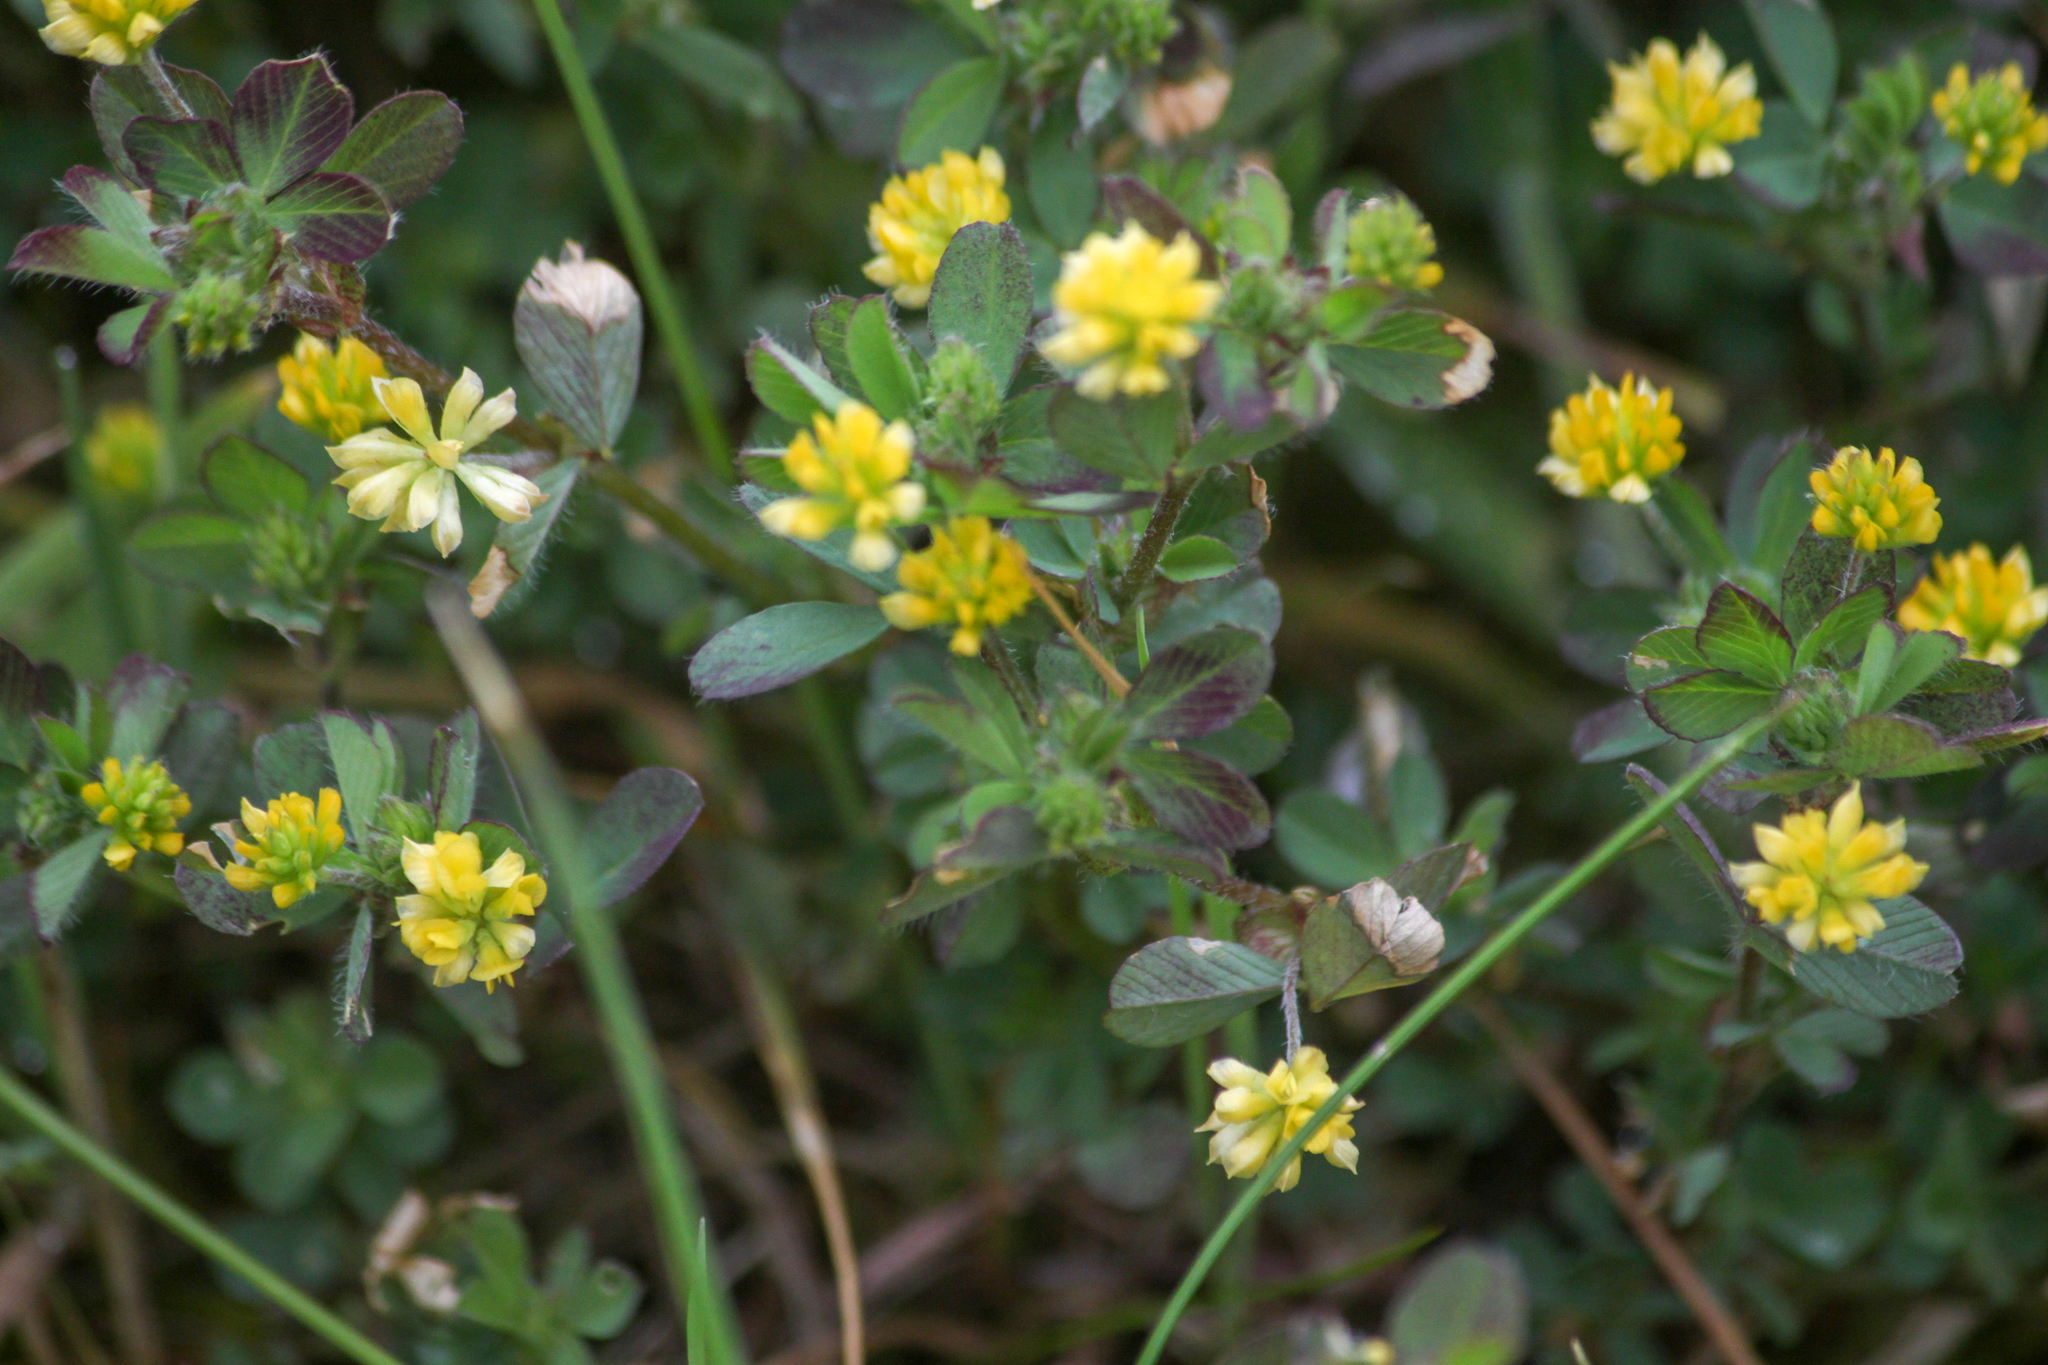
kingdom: Plantae
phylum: Tracheophyta
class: Magnoliopsida
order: Fabales
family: Fabaceae
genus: Trifolium
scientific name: Trifolium dubium
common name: Suckling clover
